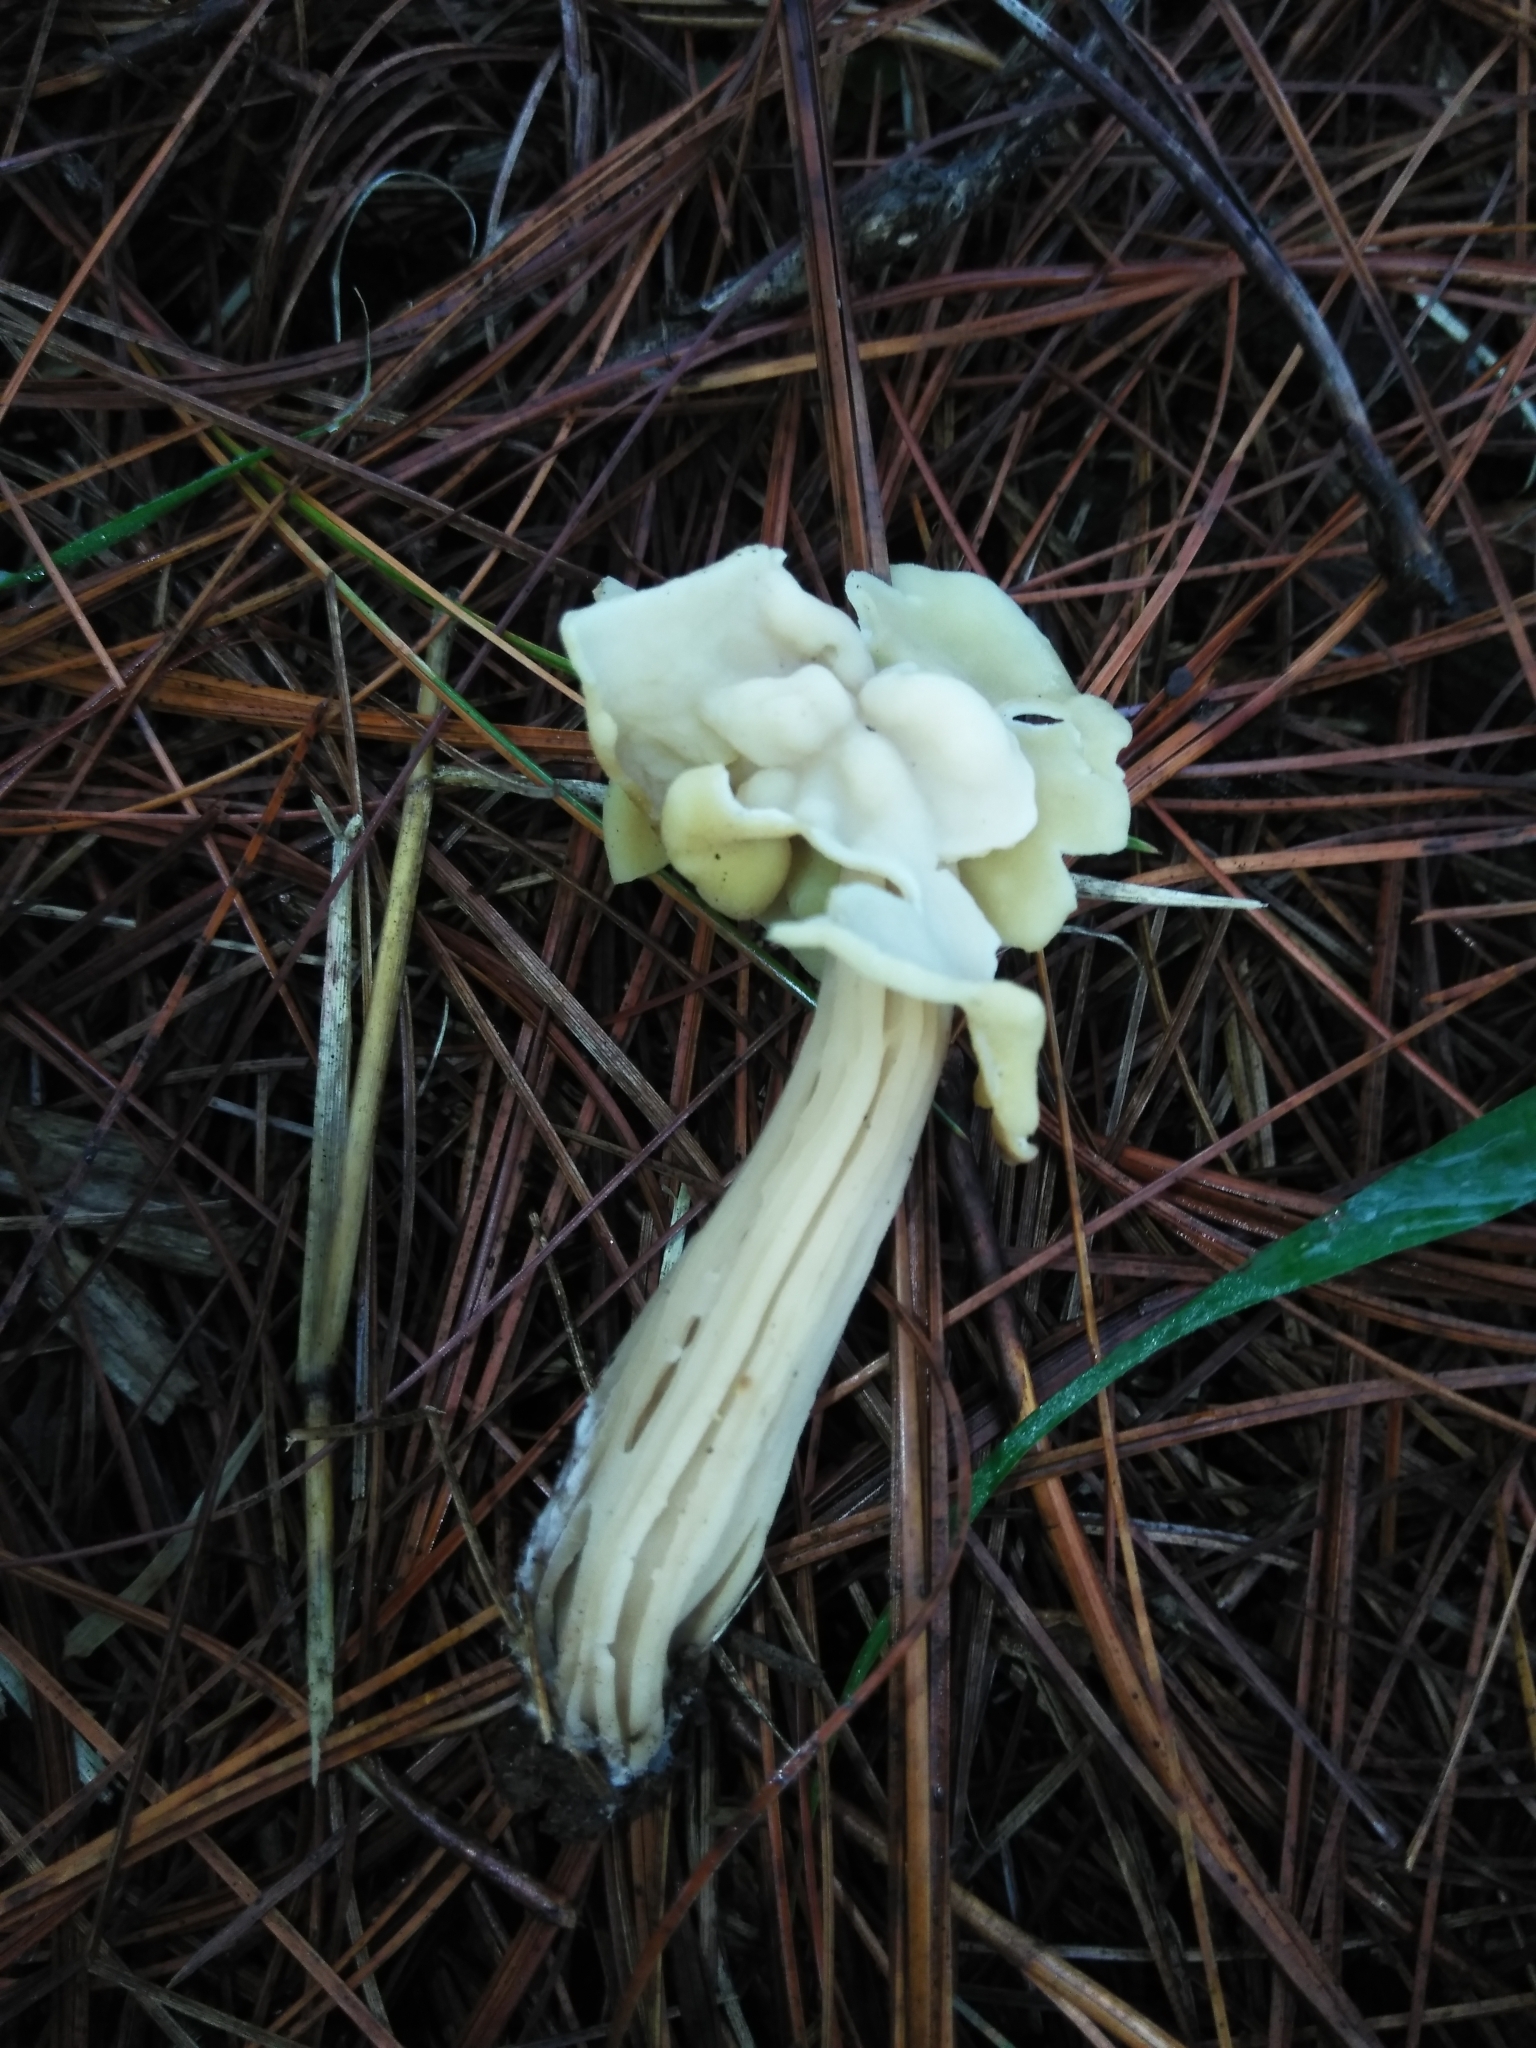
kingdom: Fungi
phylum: Ascomycota
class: Pezizomycetes
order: Pezizales
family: Helvellaceae
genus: Helvella
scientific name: Helvella crispa
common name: White saddle
